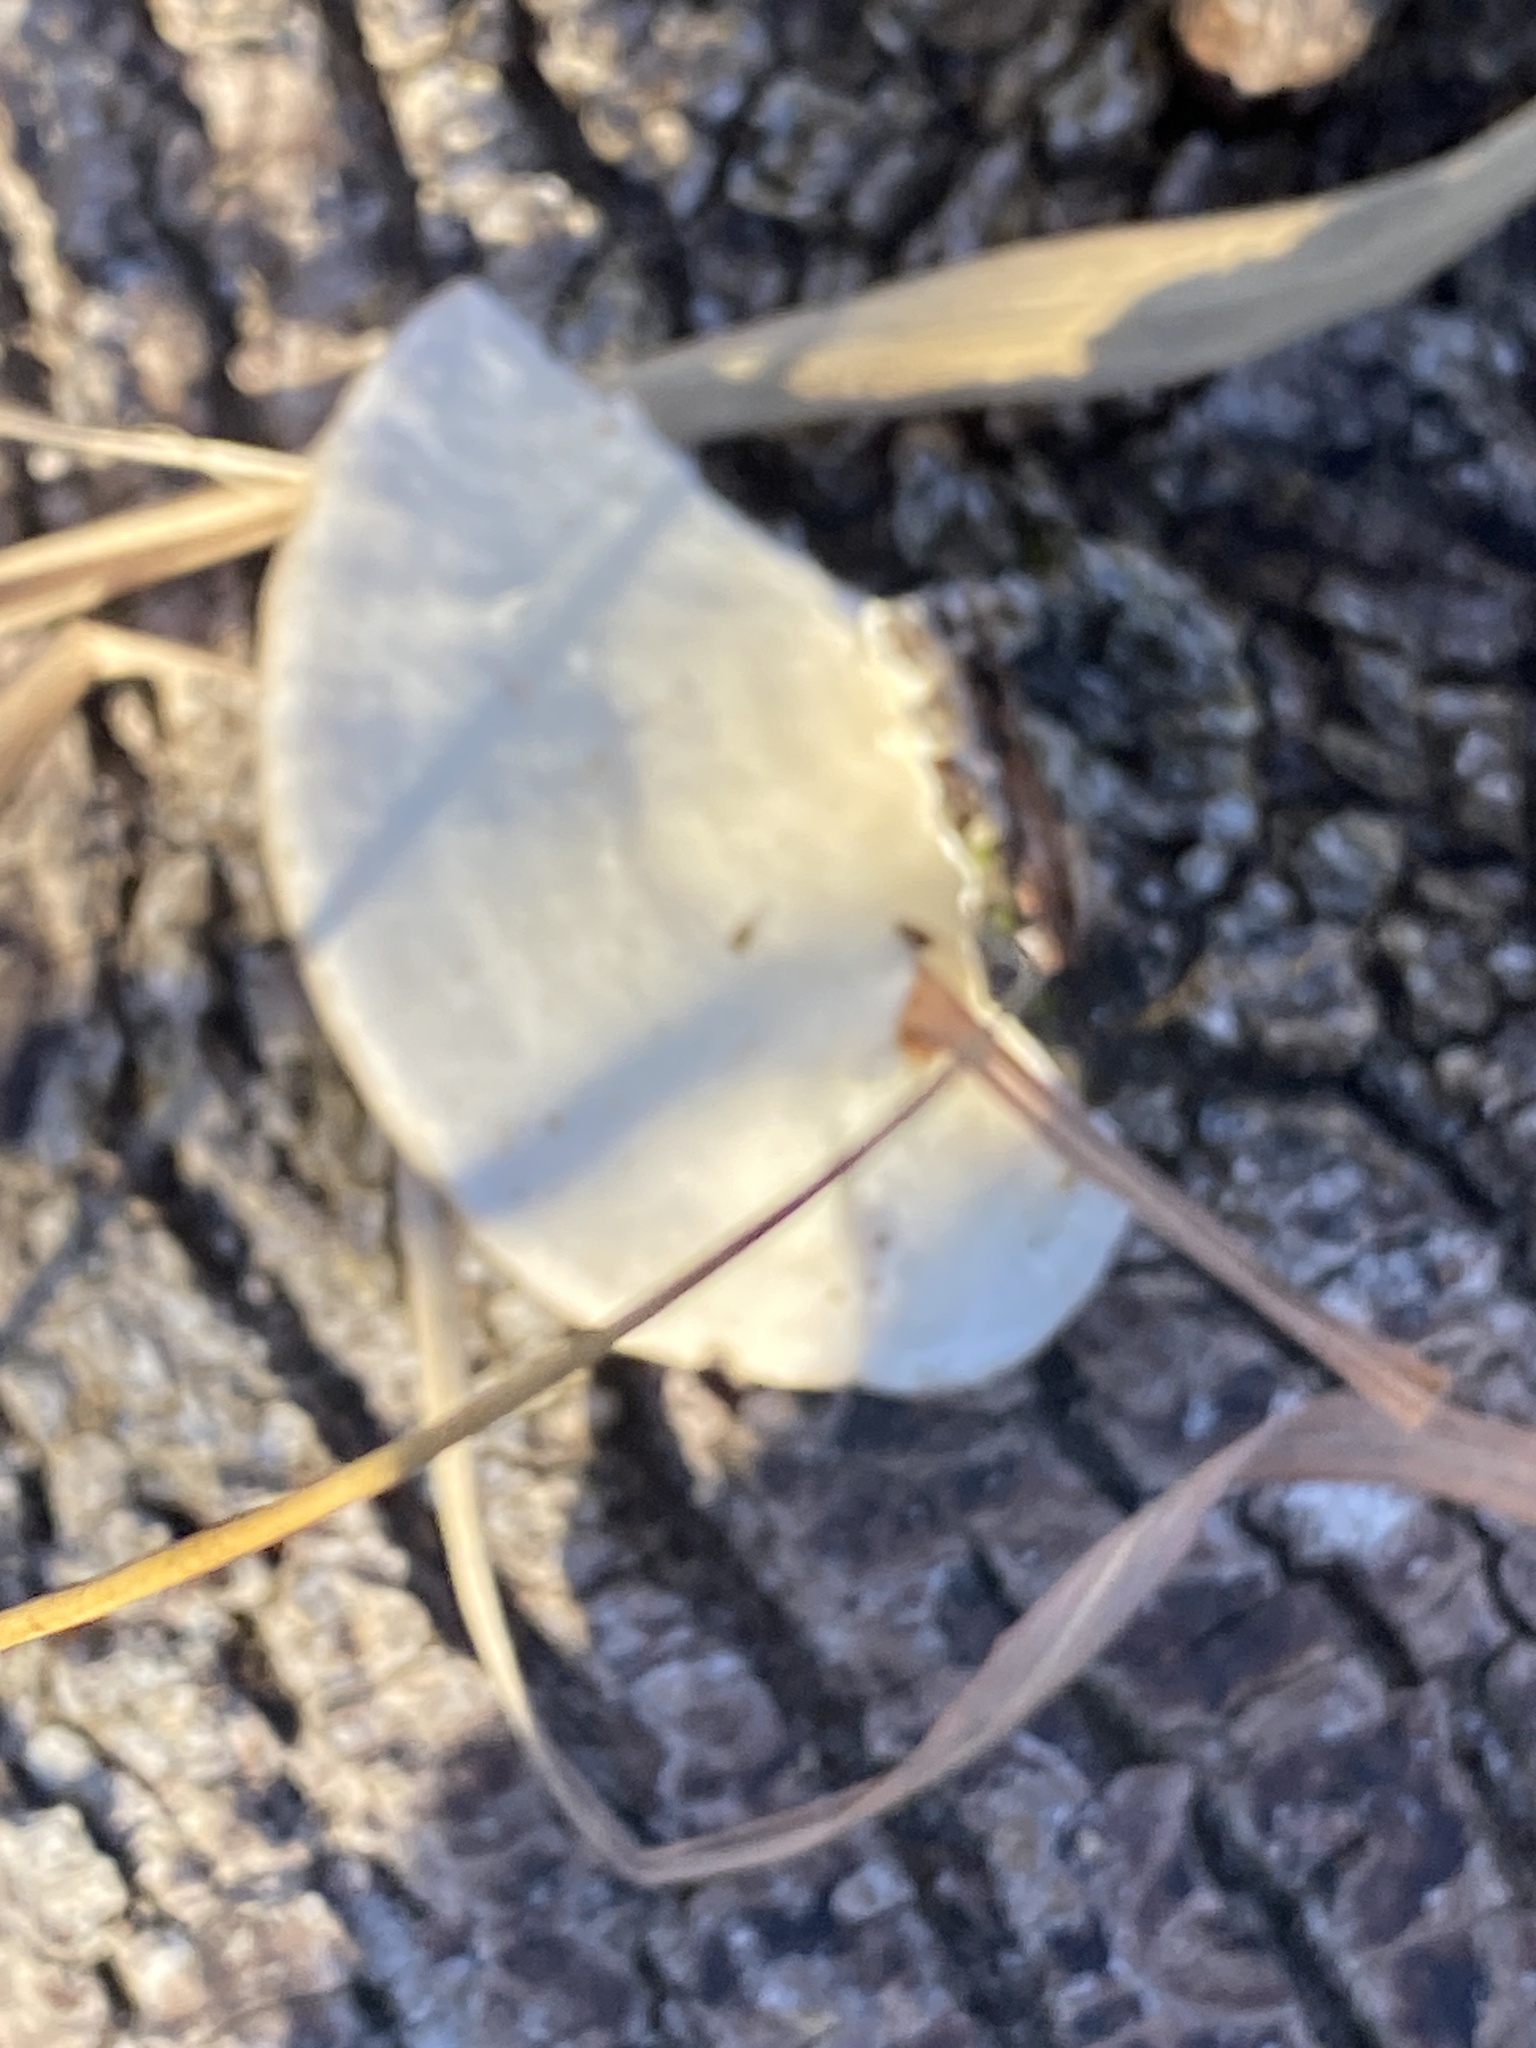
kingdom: Fungi
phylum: Basidiomycota
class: Agaricomycetes
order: Polyporales
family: Polyporaceae
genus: Trametes
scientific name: Trametes hirsuta
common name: Hairy bracket
